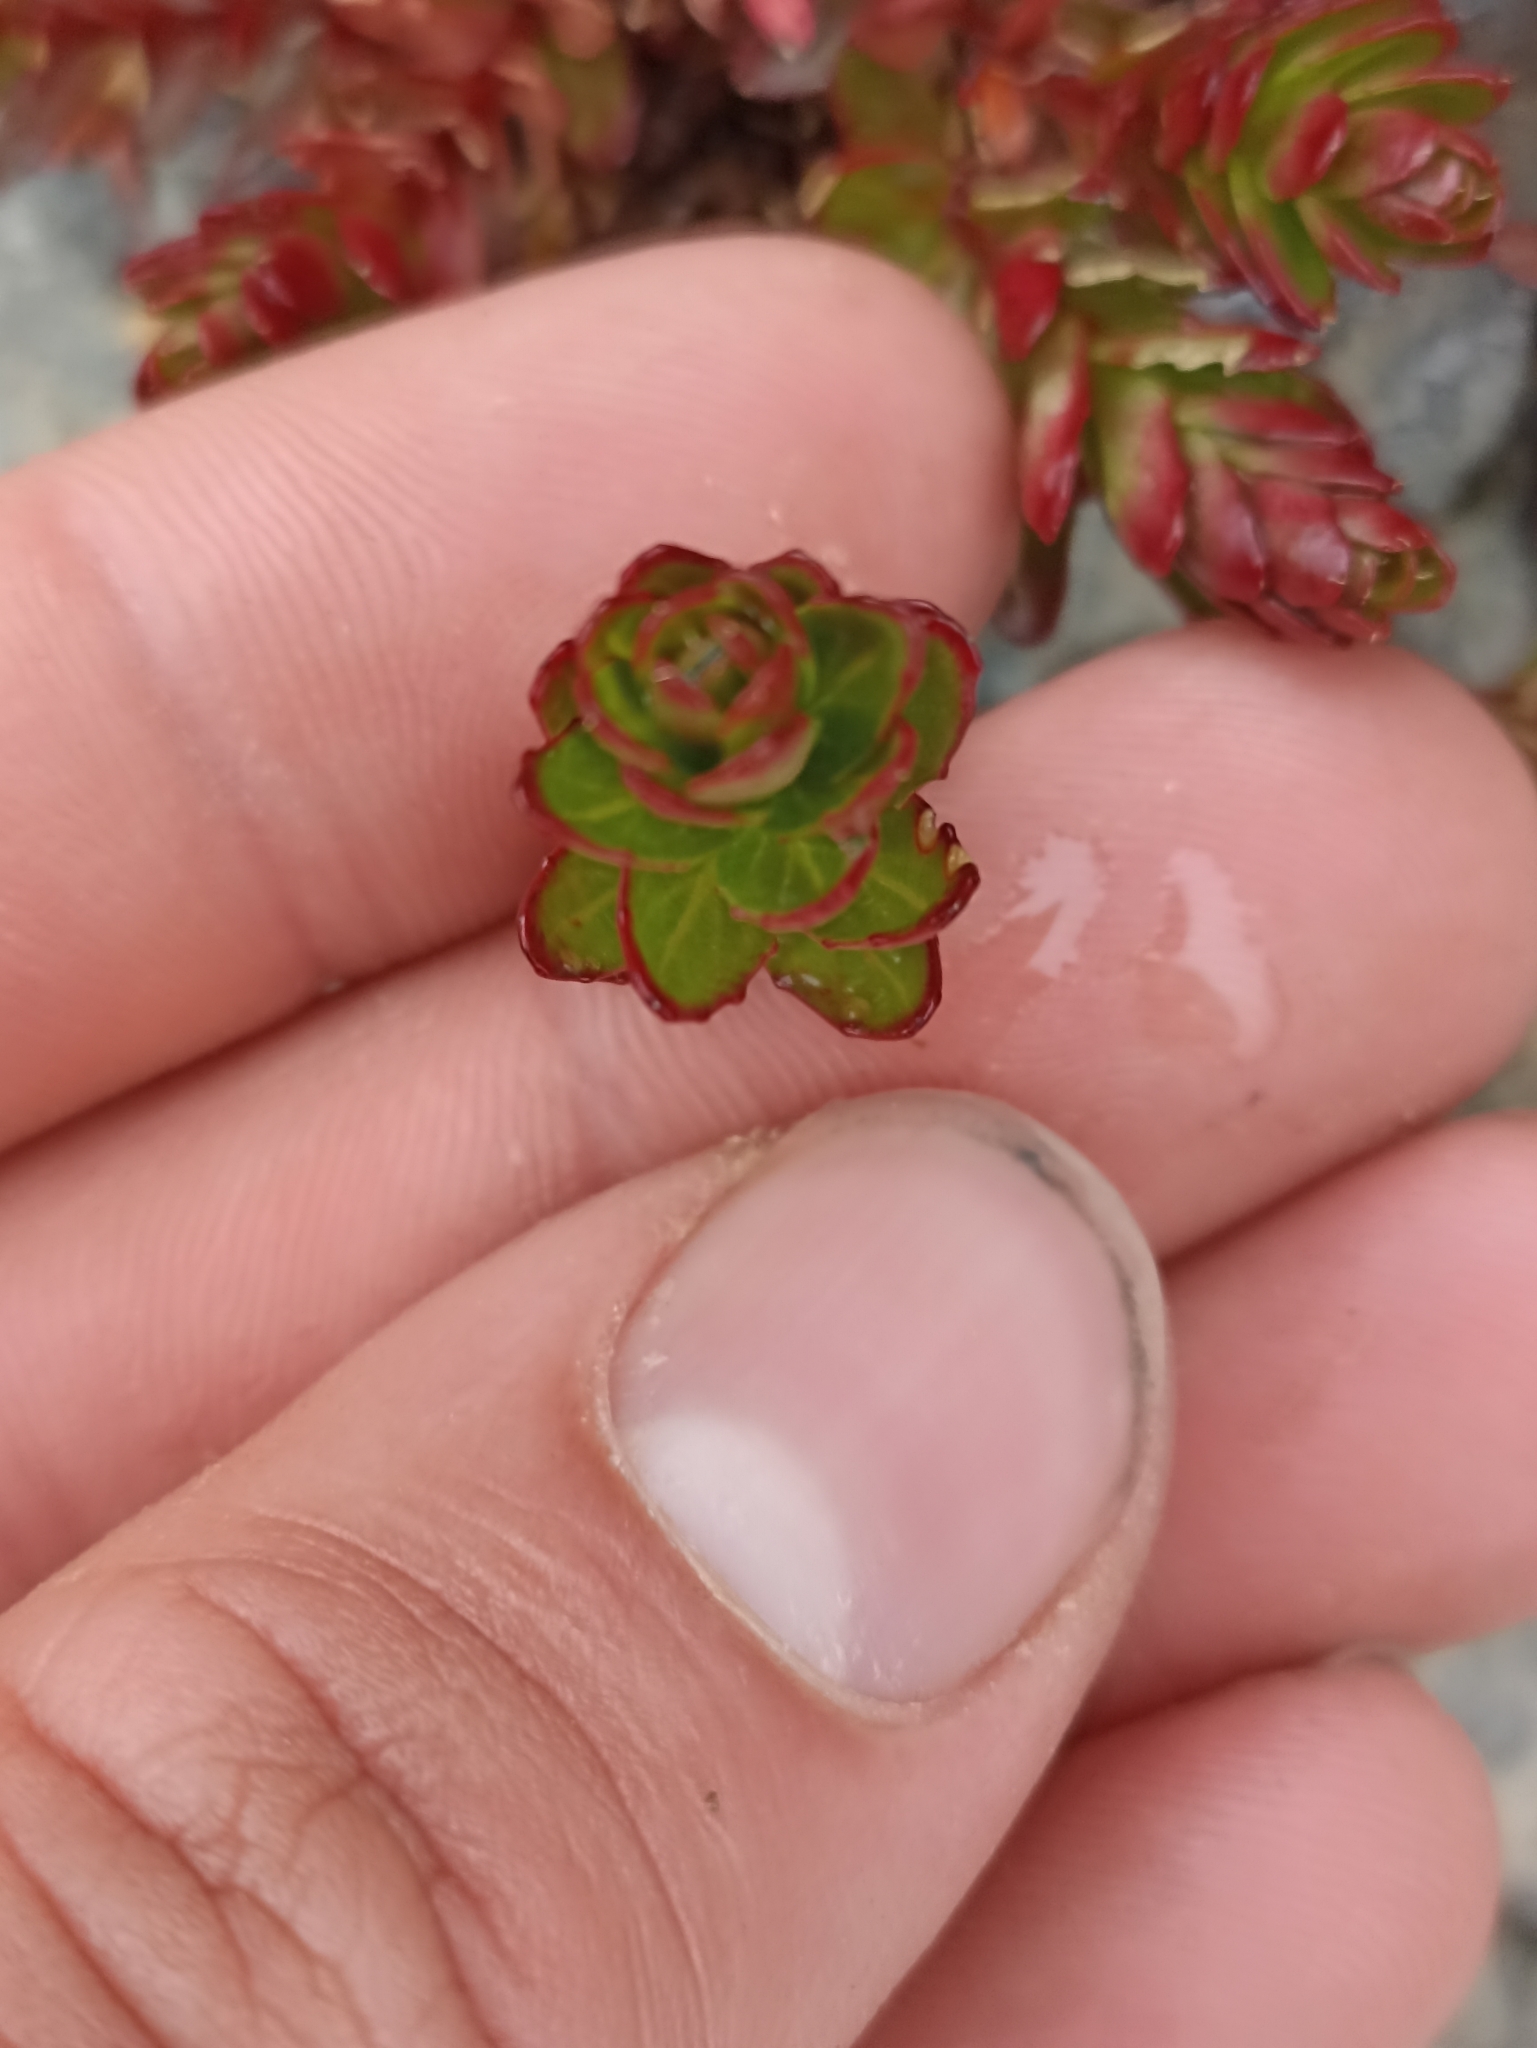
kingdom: Plantae
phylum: Tracheophyta
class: Magnoliopsida
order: Myrtales
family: Onagraceae
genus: Epilobium
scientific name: Epilobium glabellum
